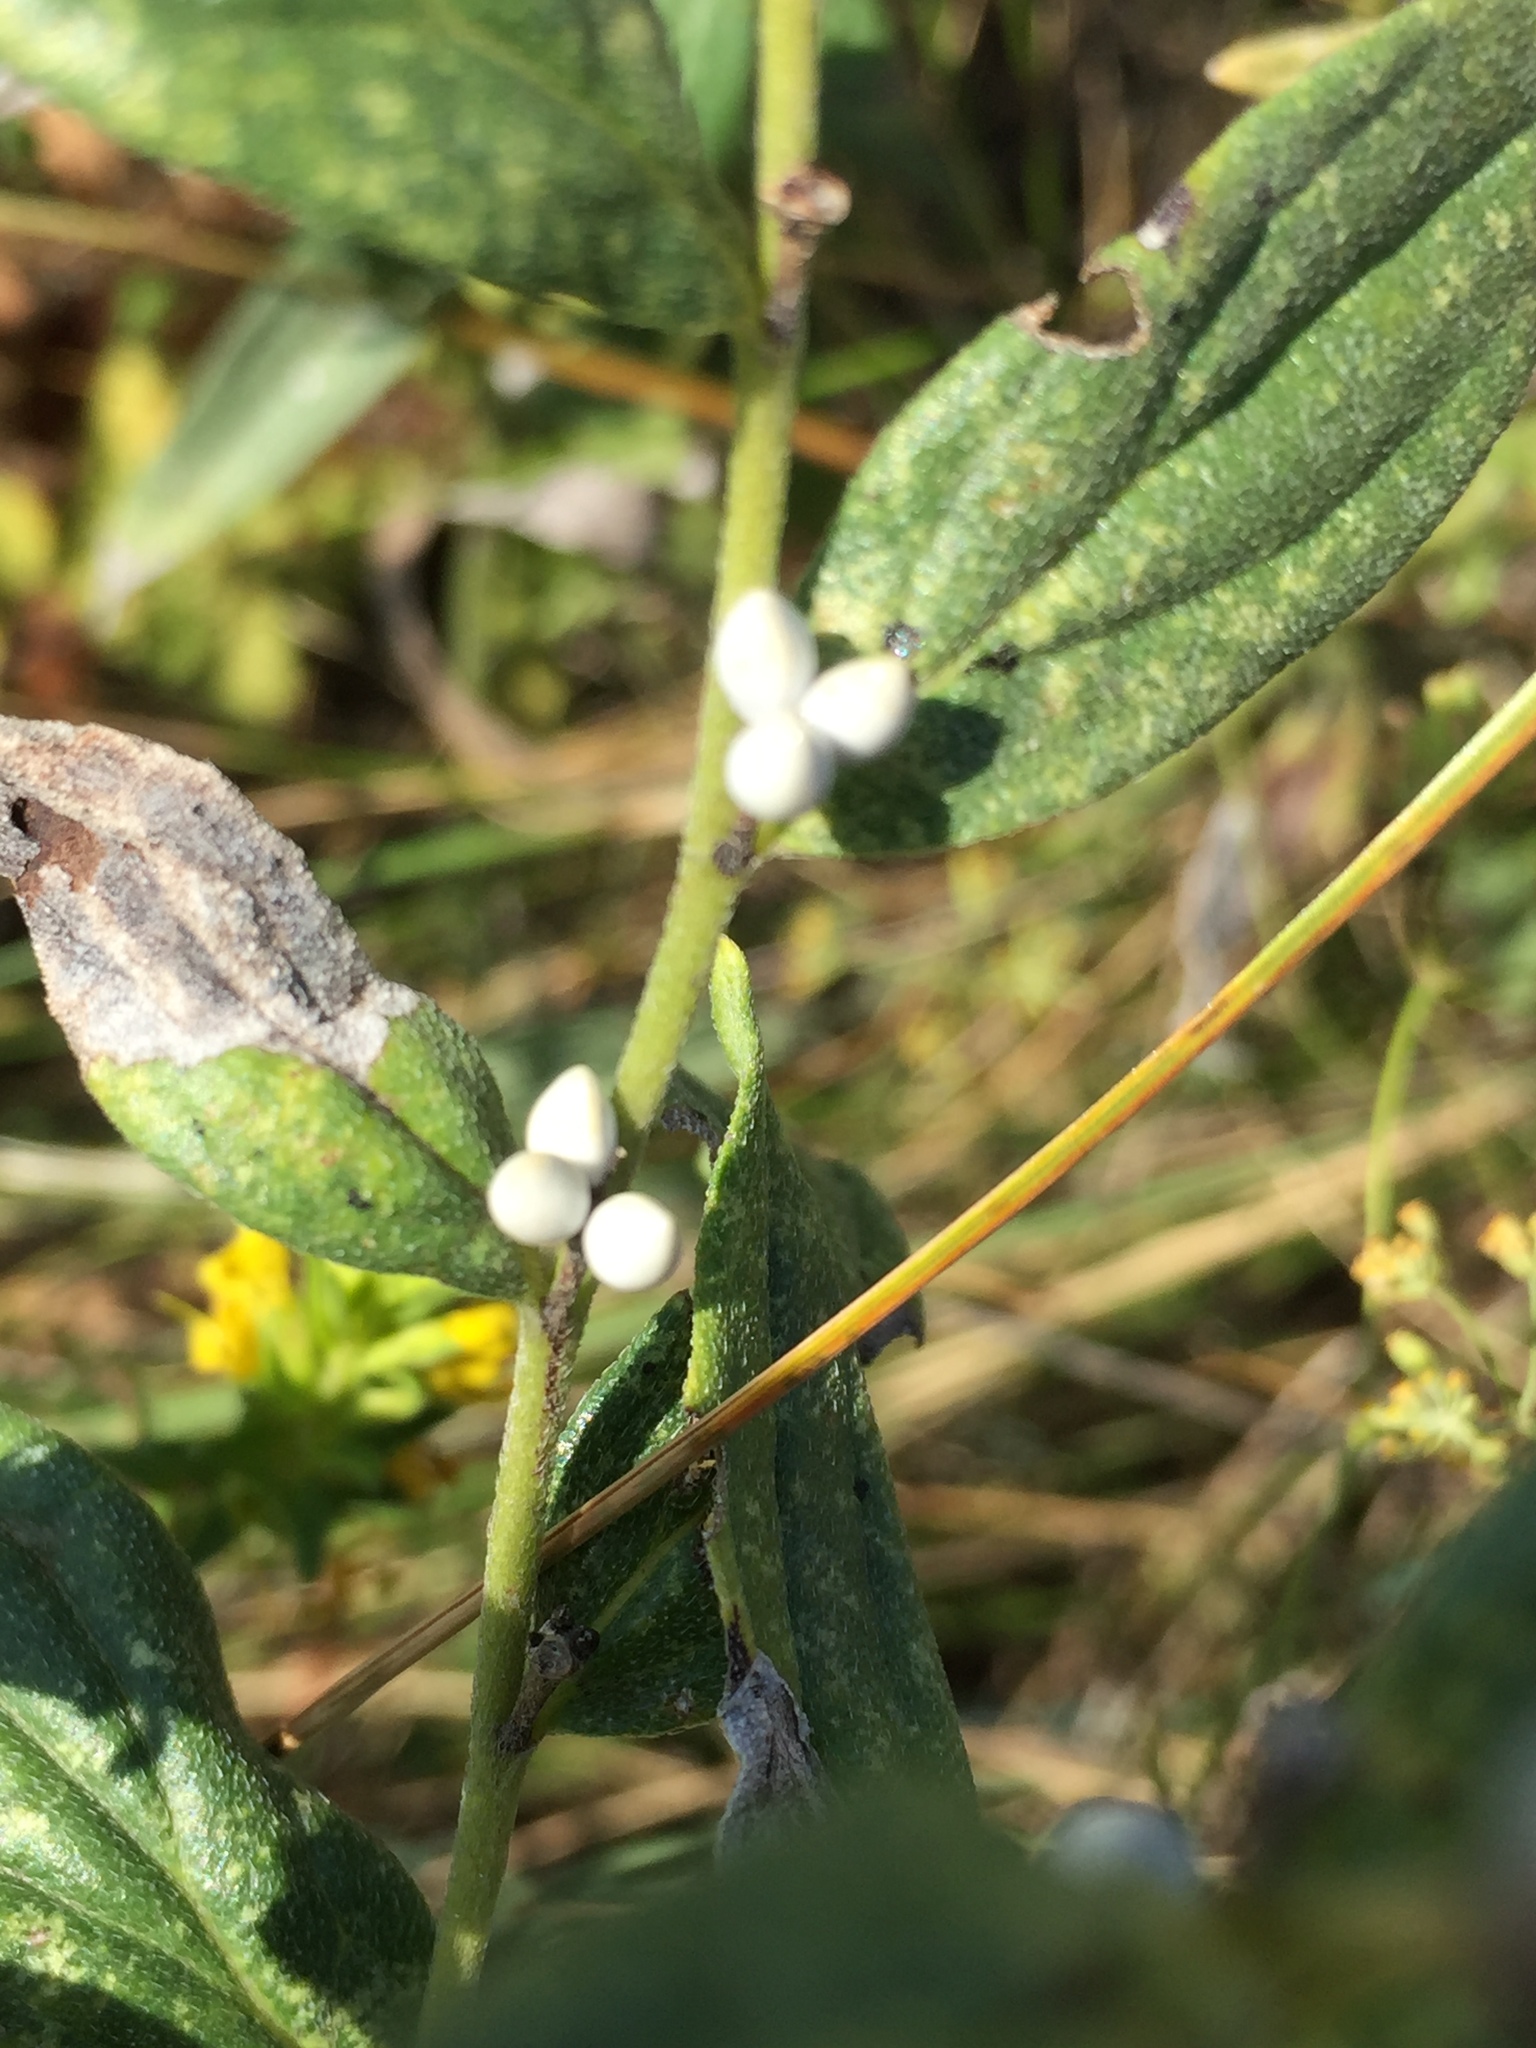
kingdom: Plantae
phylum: Tracheophyta
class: Magnoliopsida
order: Boraginales
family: Boraginaceae
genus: Lithospermum
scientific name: Lithospermum officinale
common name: Common gromwell
